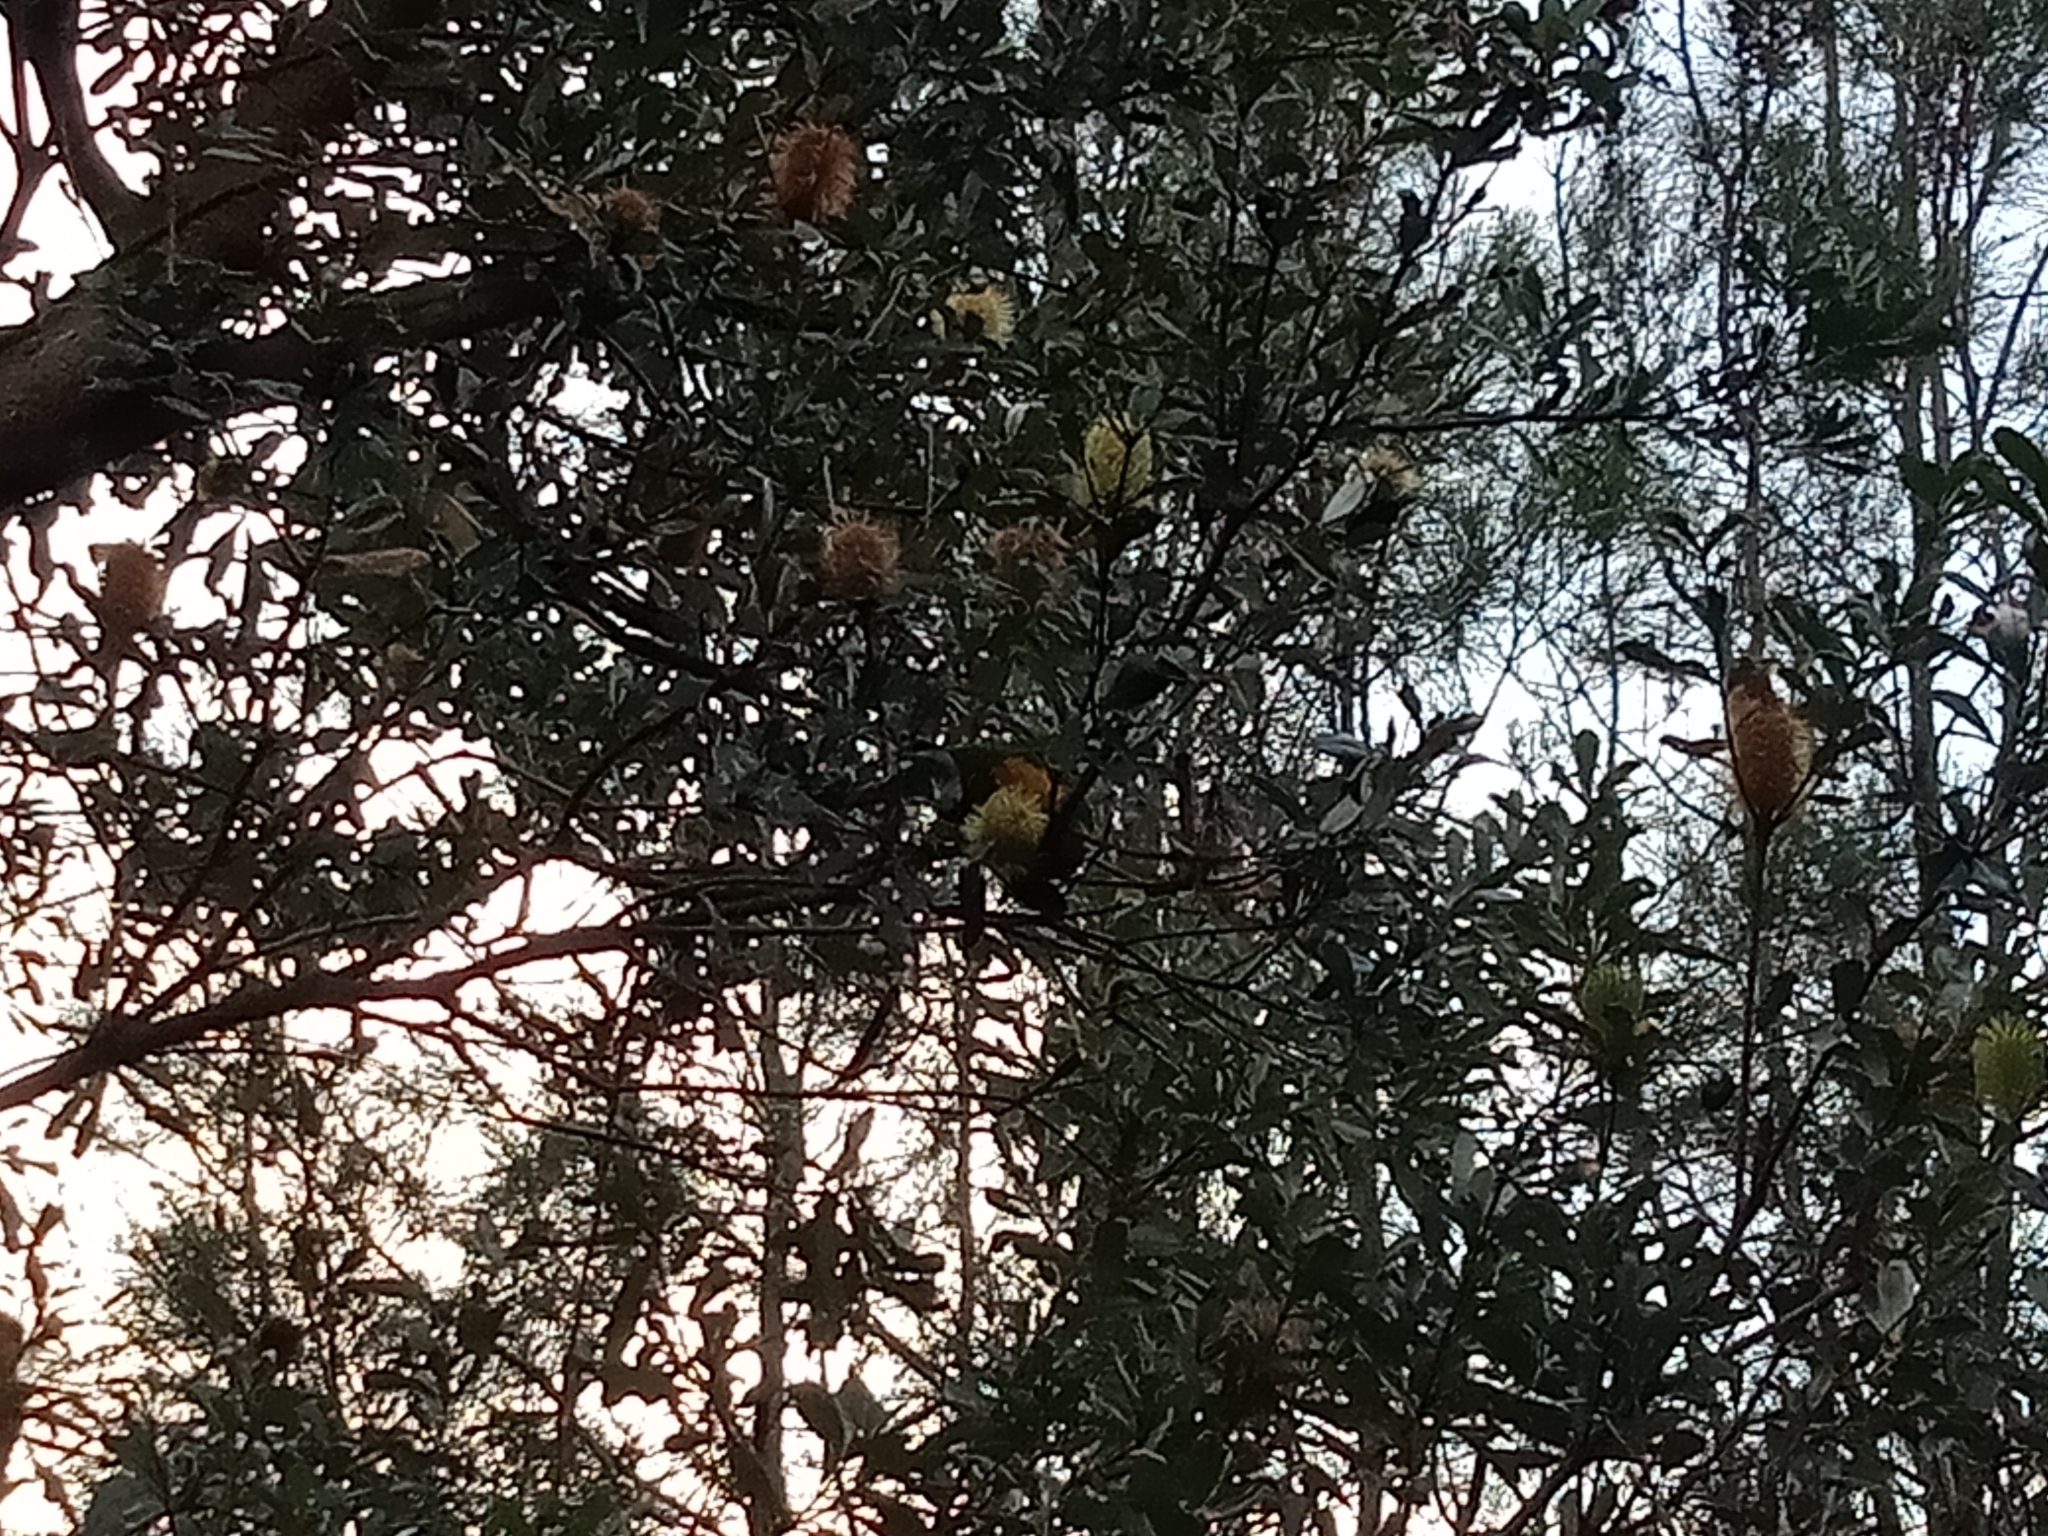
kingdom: Animalia
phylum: Chordata
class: Aves
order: Psittaciformes
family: Psittacidae
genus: Trichoglossus
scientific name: Trichoglossus haematodus
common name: Coconut lorikeet
